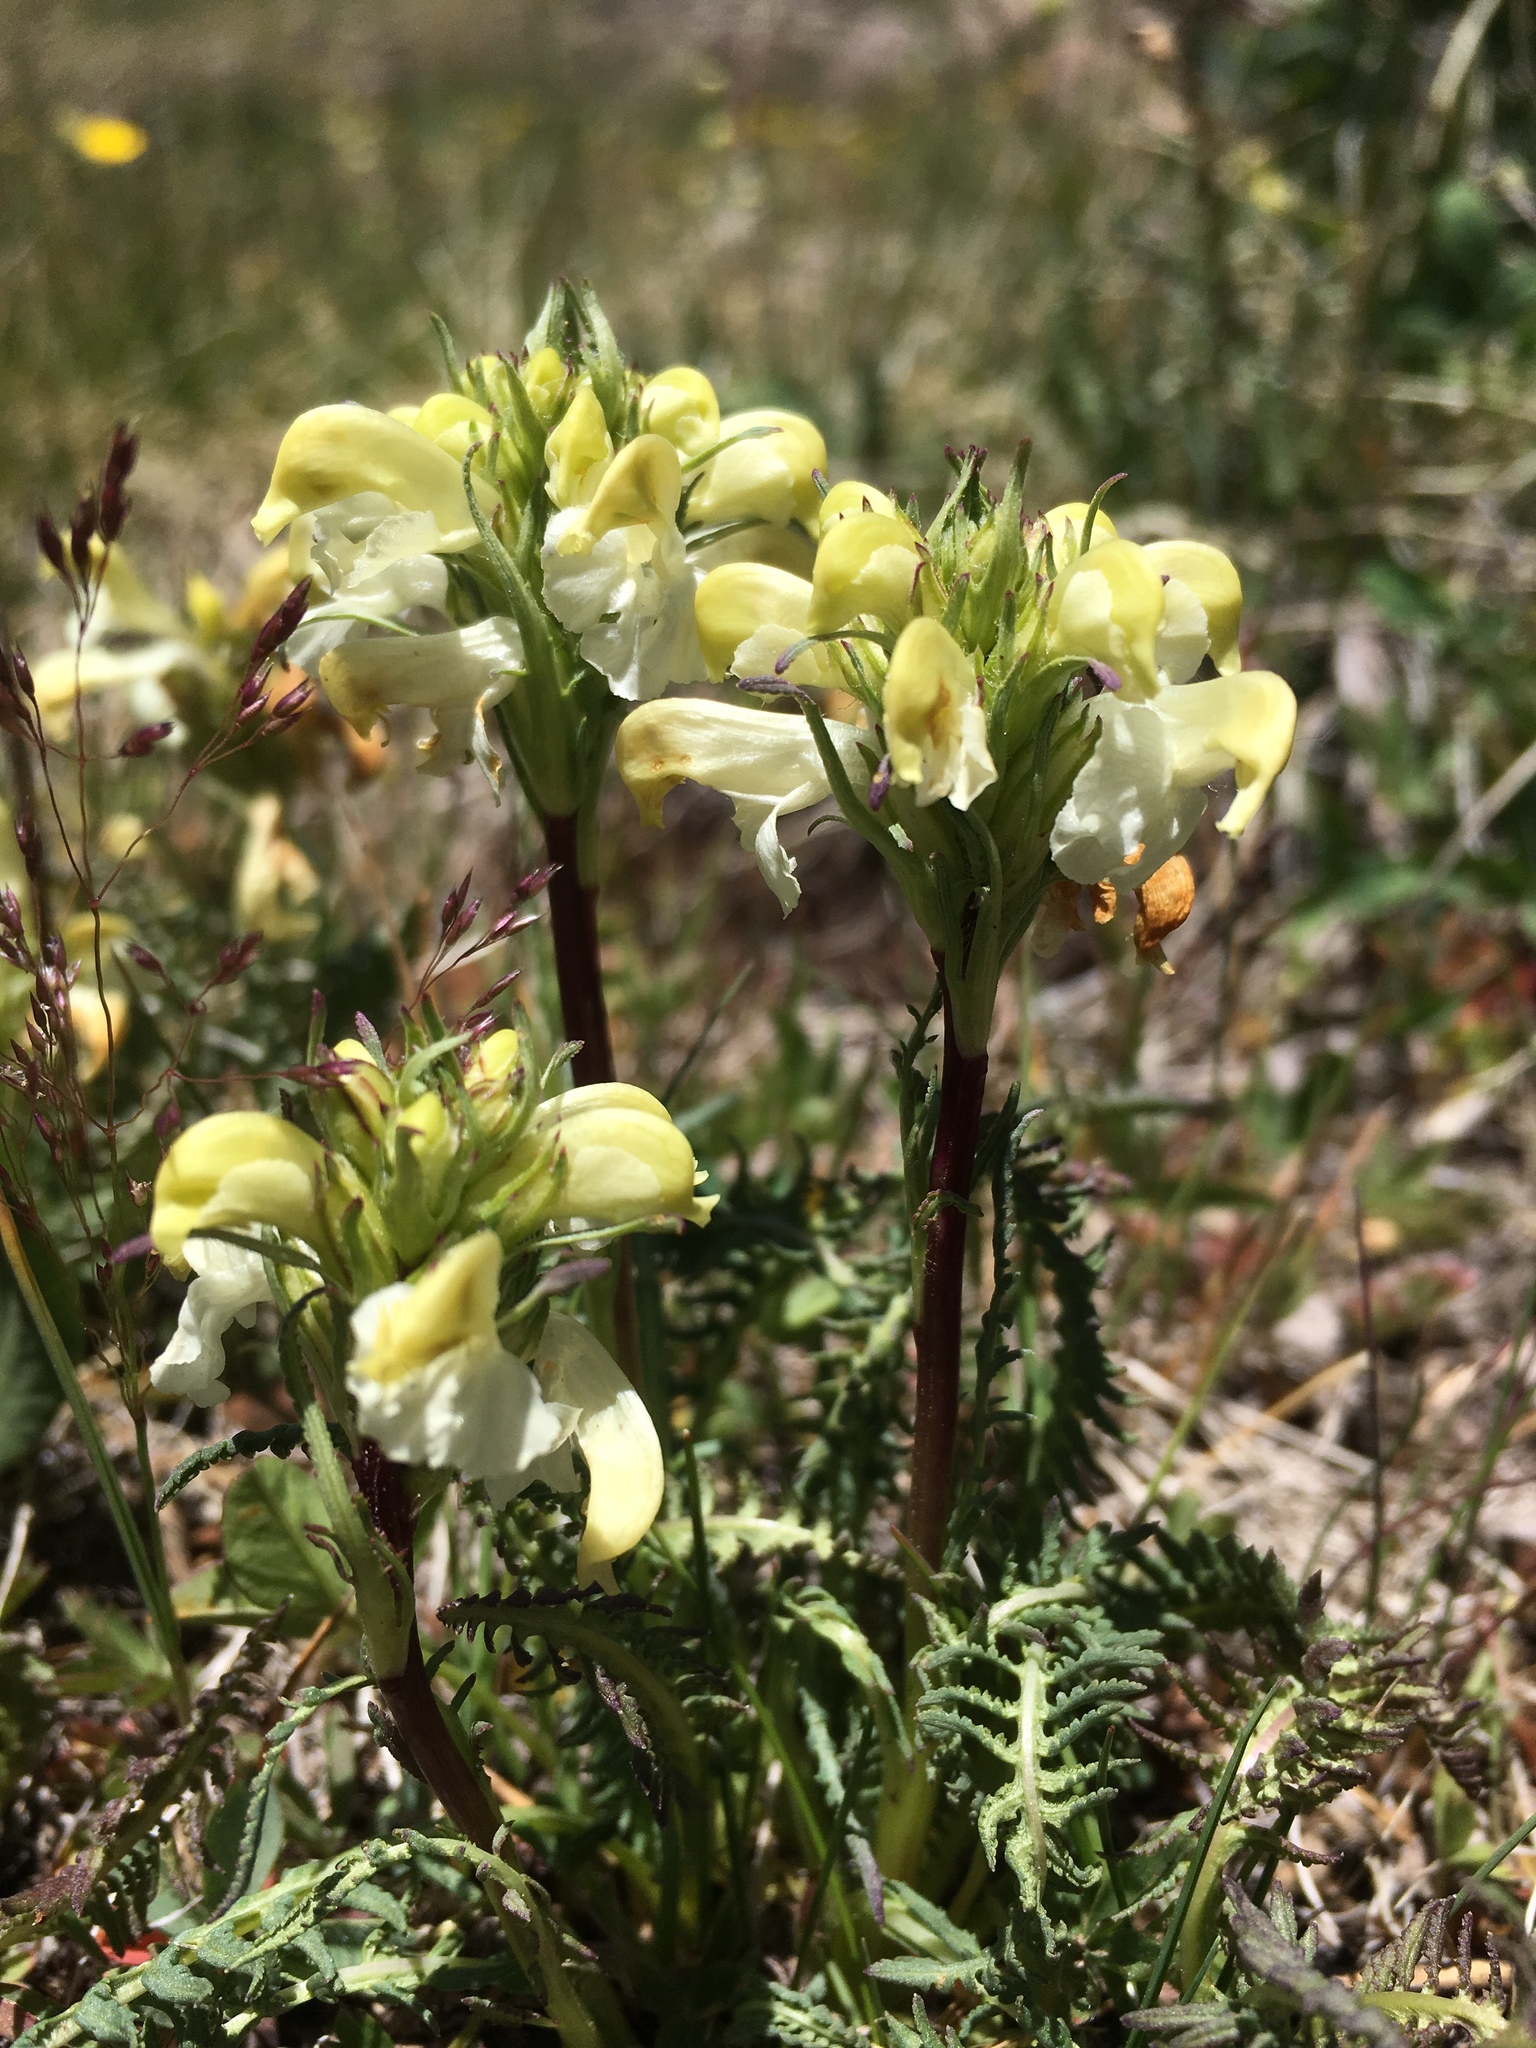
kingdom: Plantae
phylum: Tracheophyta
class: Magnoliopsida
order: Lamiales
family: Orobanchaceae
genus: Pedicularis
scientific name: Pedicularis parryi
